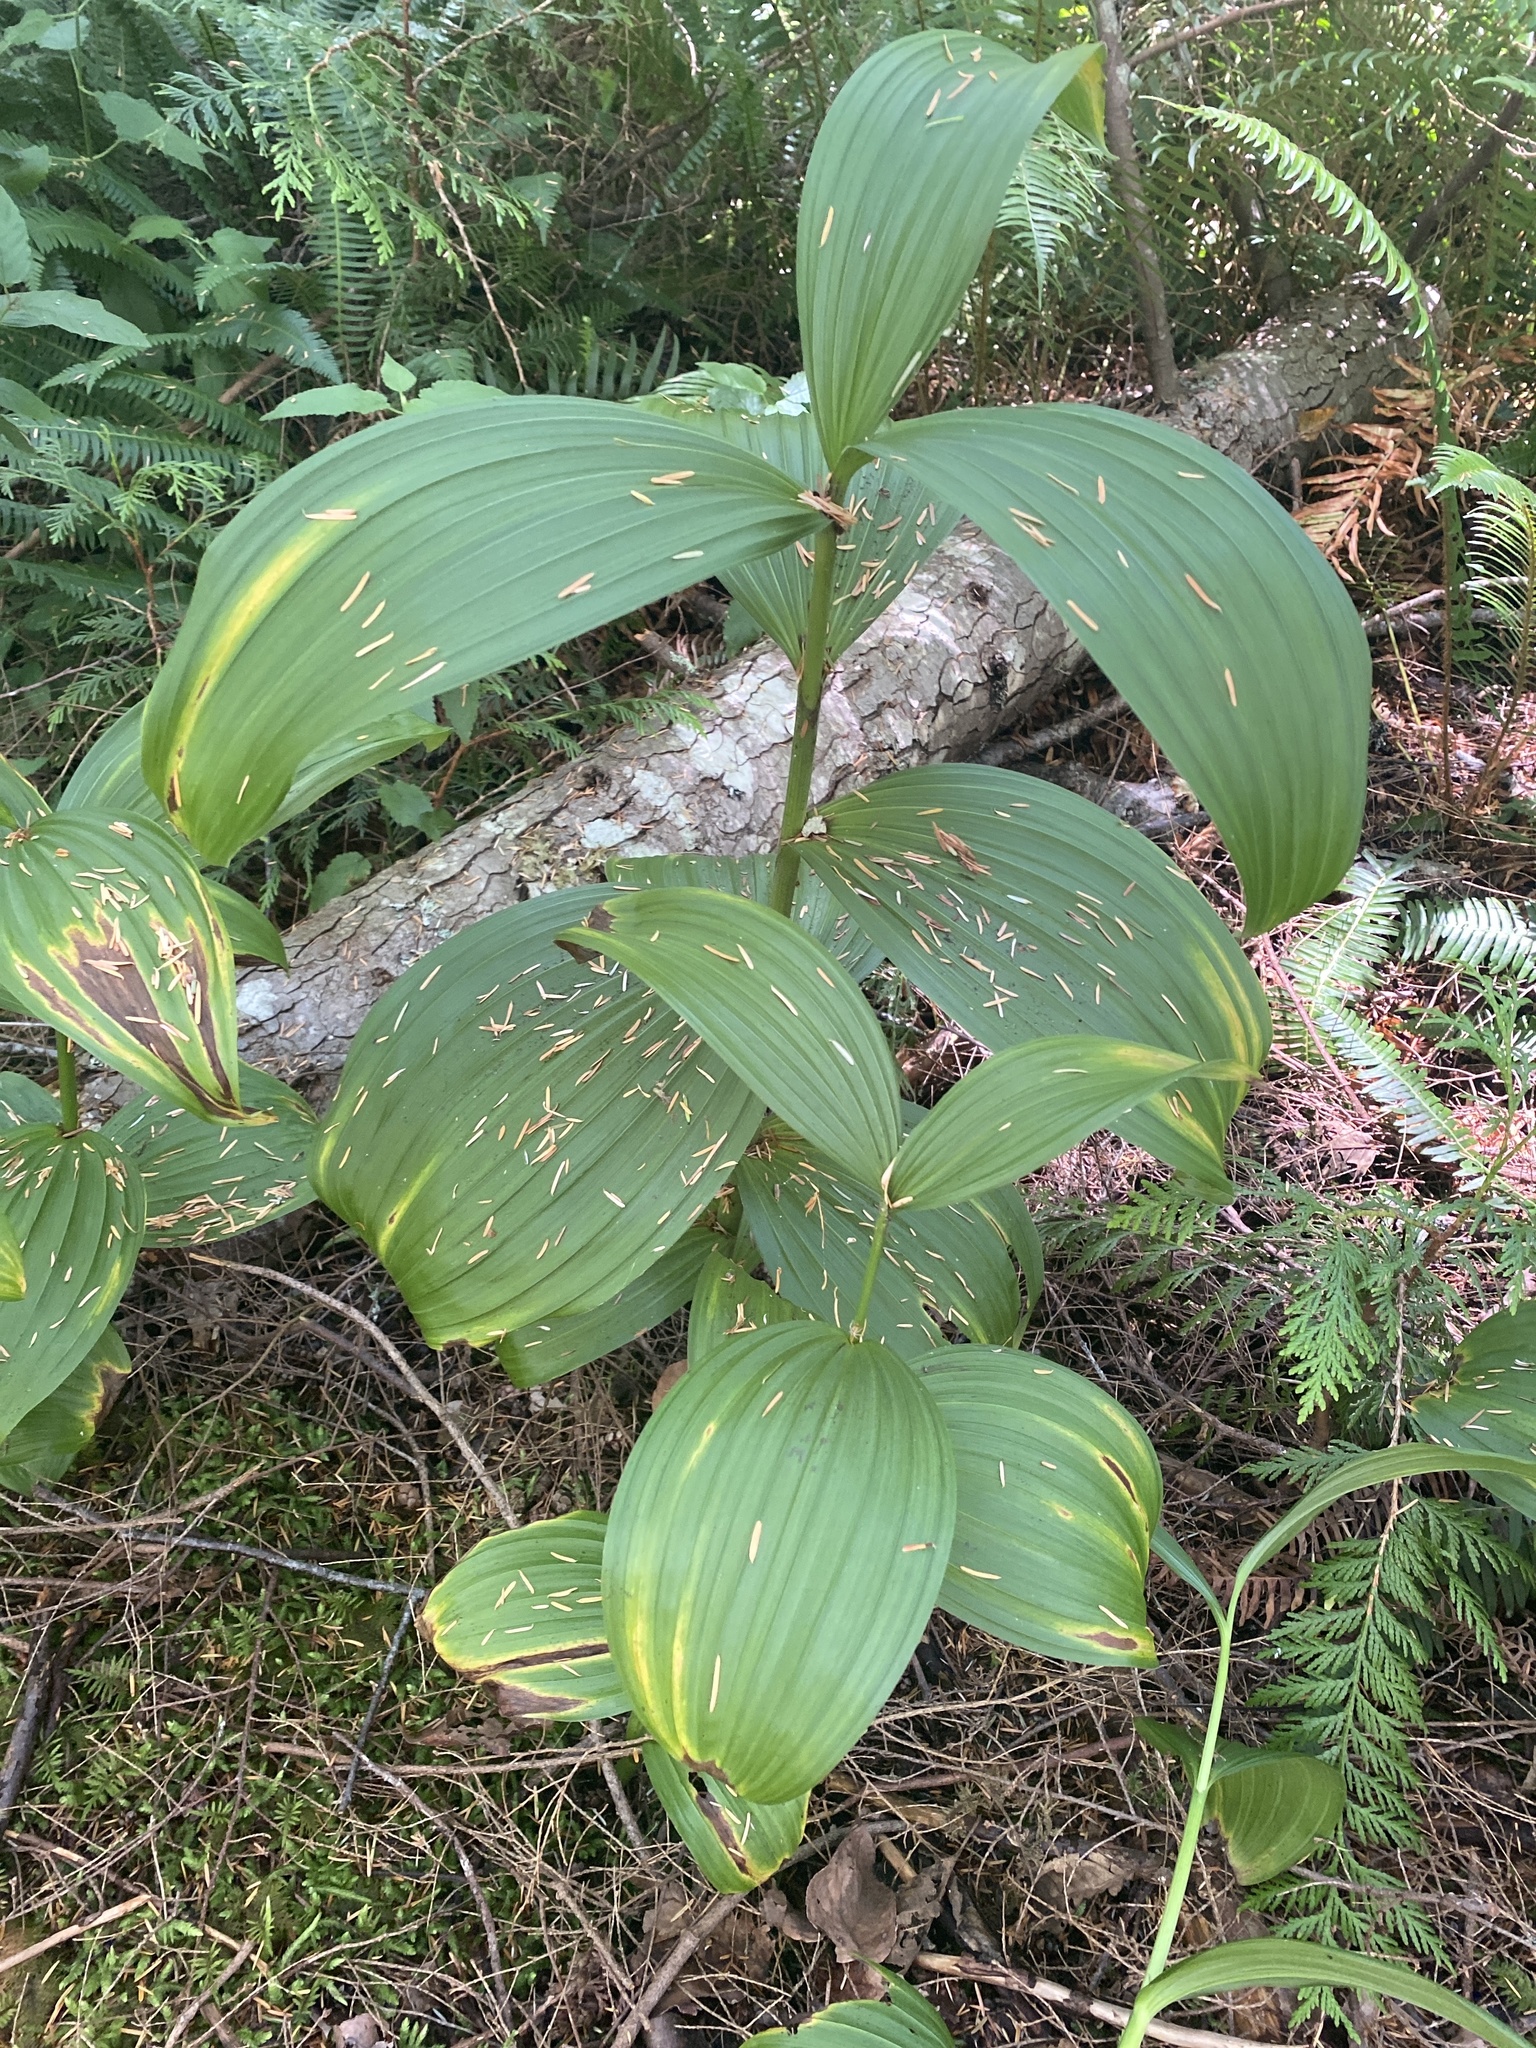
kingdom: Plantae
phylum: Tracheophyta
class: Liliopsida
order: Liliales
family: Melanthiaceae
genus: Veratrum
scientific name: Veratrum viride
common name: American false hellebore
